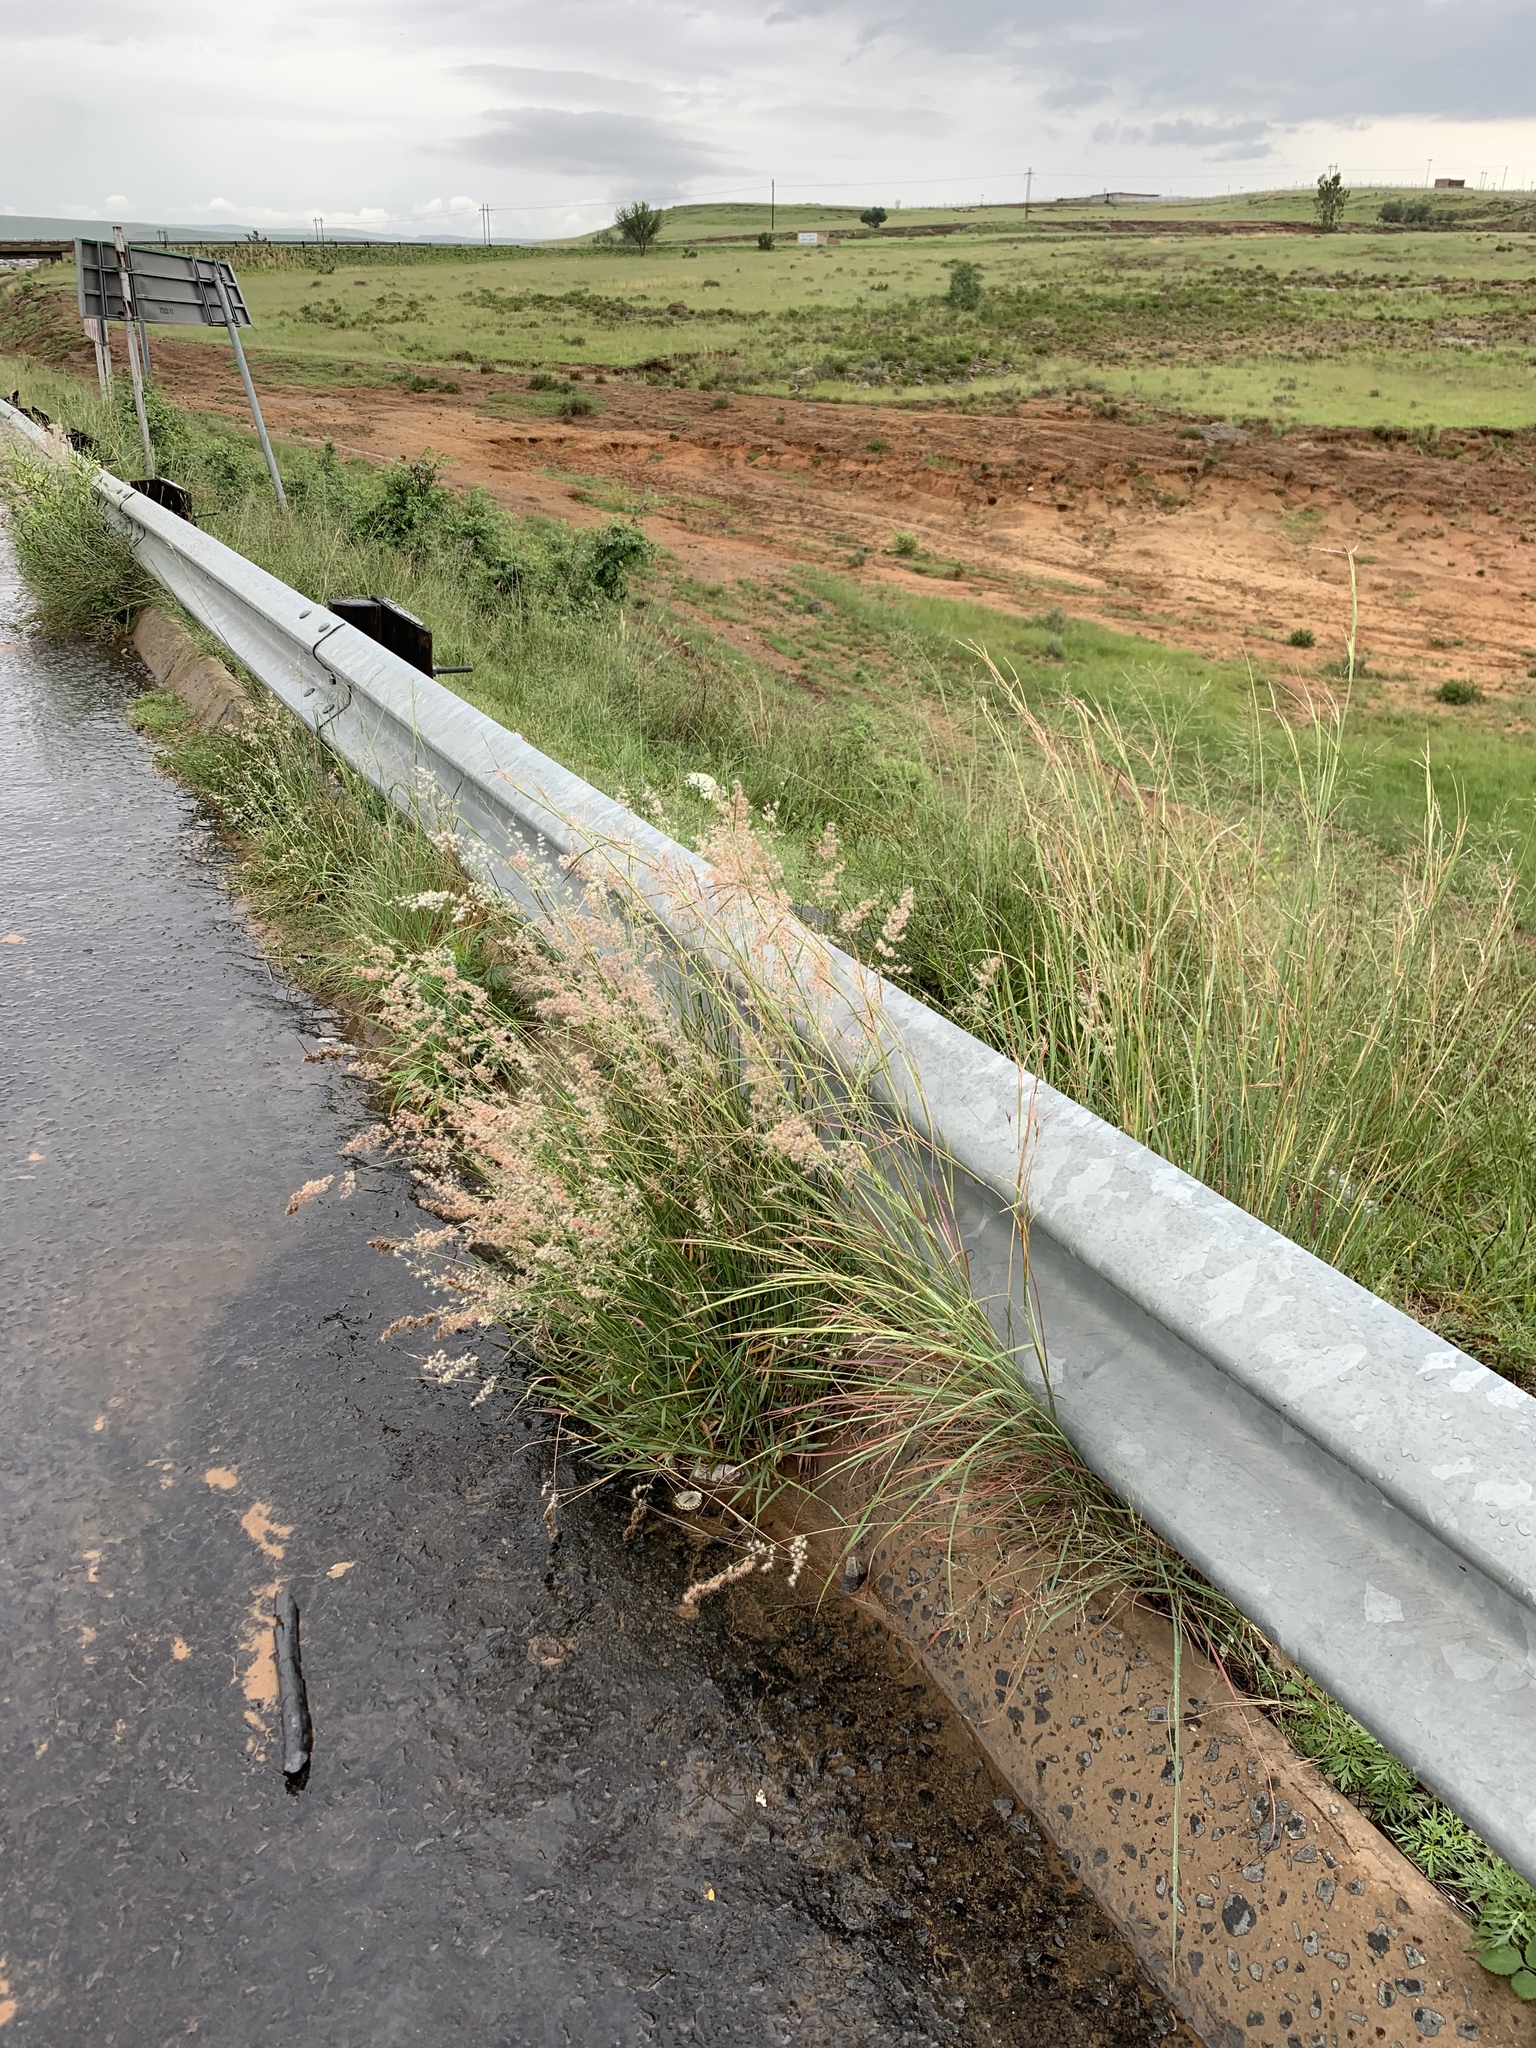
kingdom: Plantae
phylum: Tracheophyta
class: Liliopsida
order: Poales
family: Poaceae
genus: Melinis
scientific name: Melinis repens
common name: Rose natal grass
